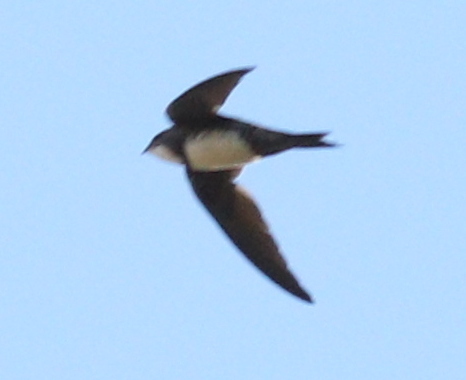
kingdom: Animalia
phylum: Chordata
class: Aves
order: Apodiformes
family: Apodidae
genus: Tachymarptis
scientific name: Tachymarptis melba
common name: Alpine swift
